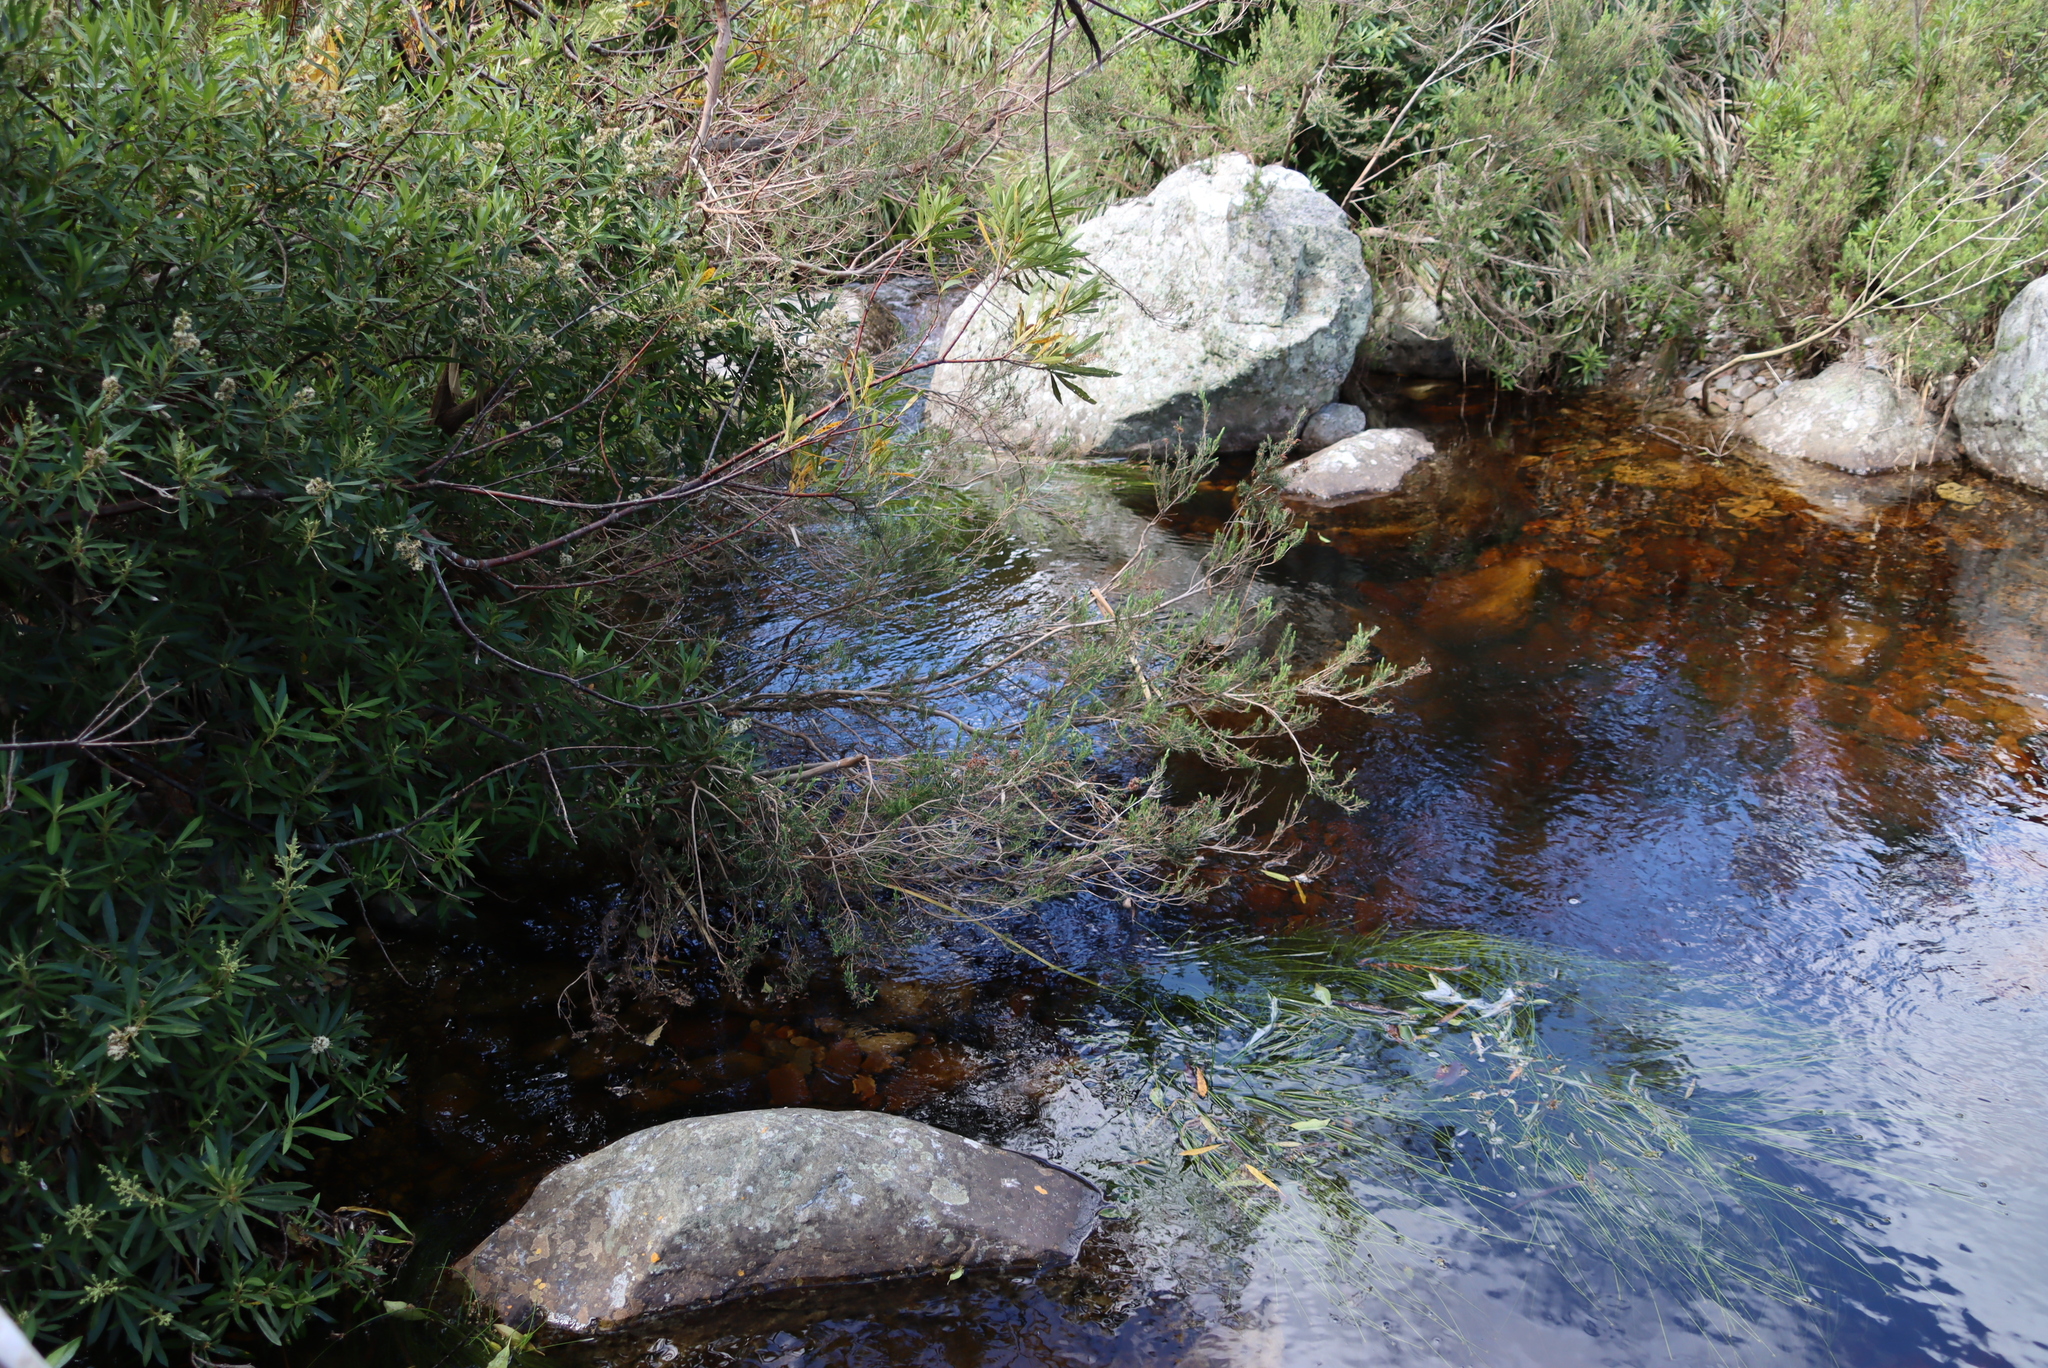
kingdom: Plantae
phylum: Tracheophyta
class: Magnoliopsida
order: Ericales
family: Ericaceae
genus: Erica
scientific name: Erica caffra
